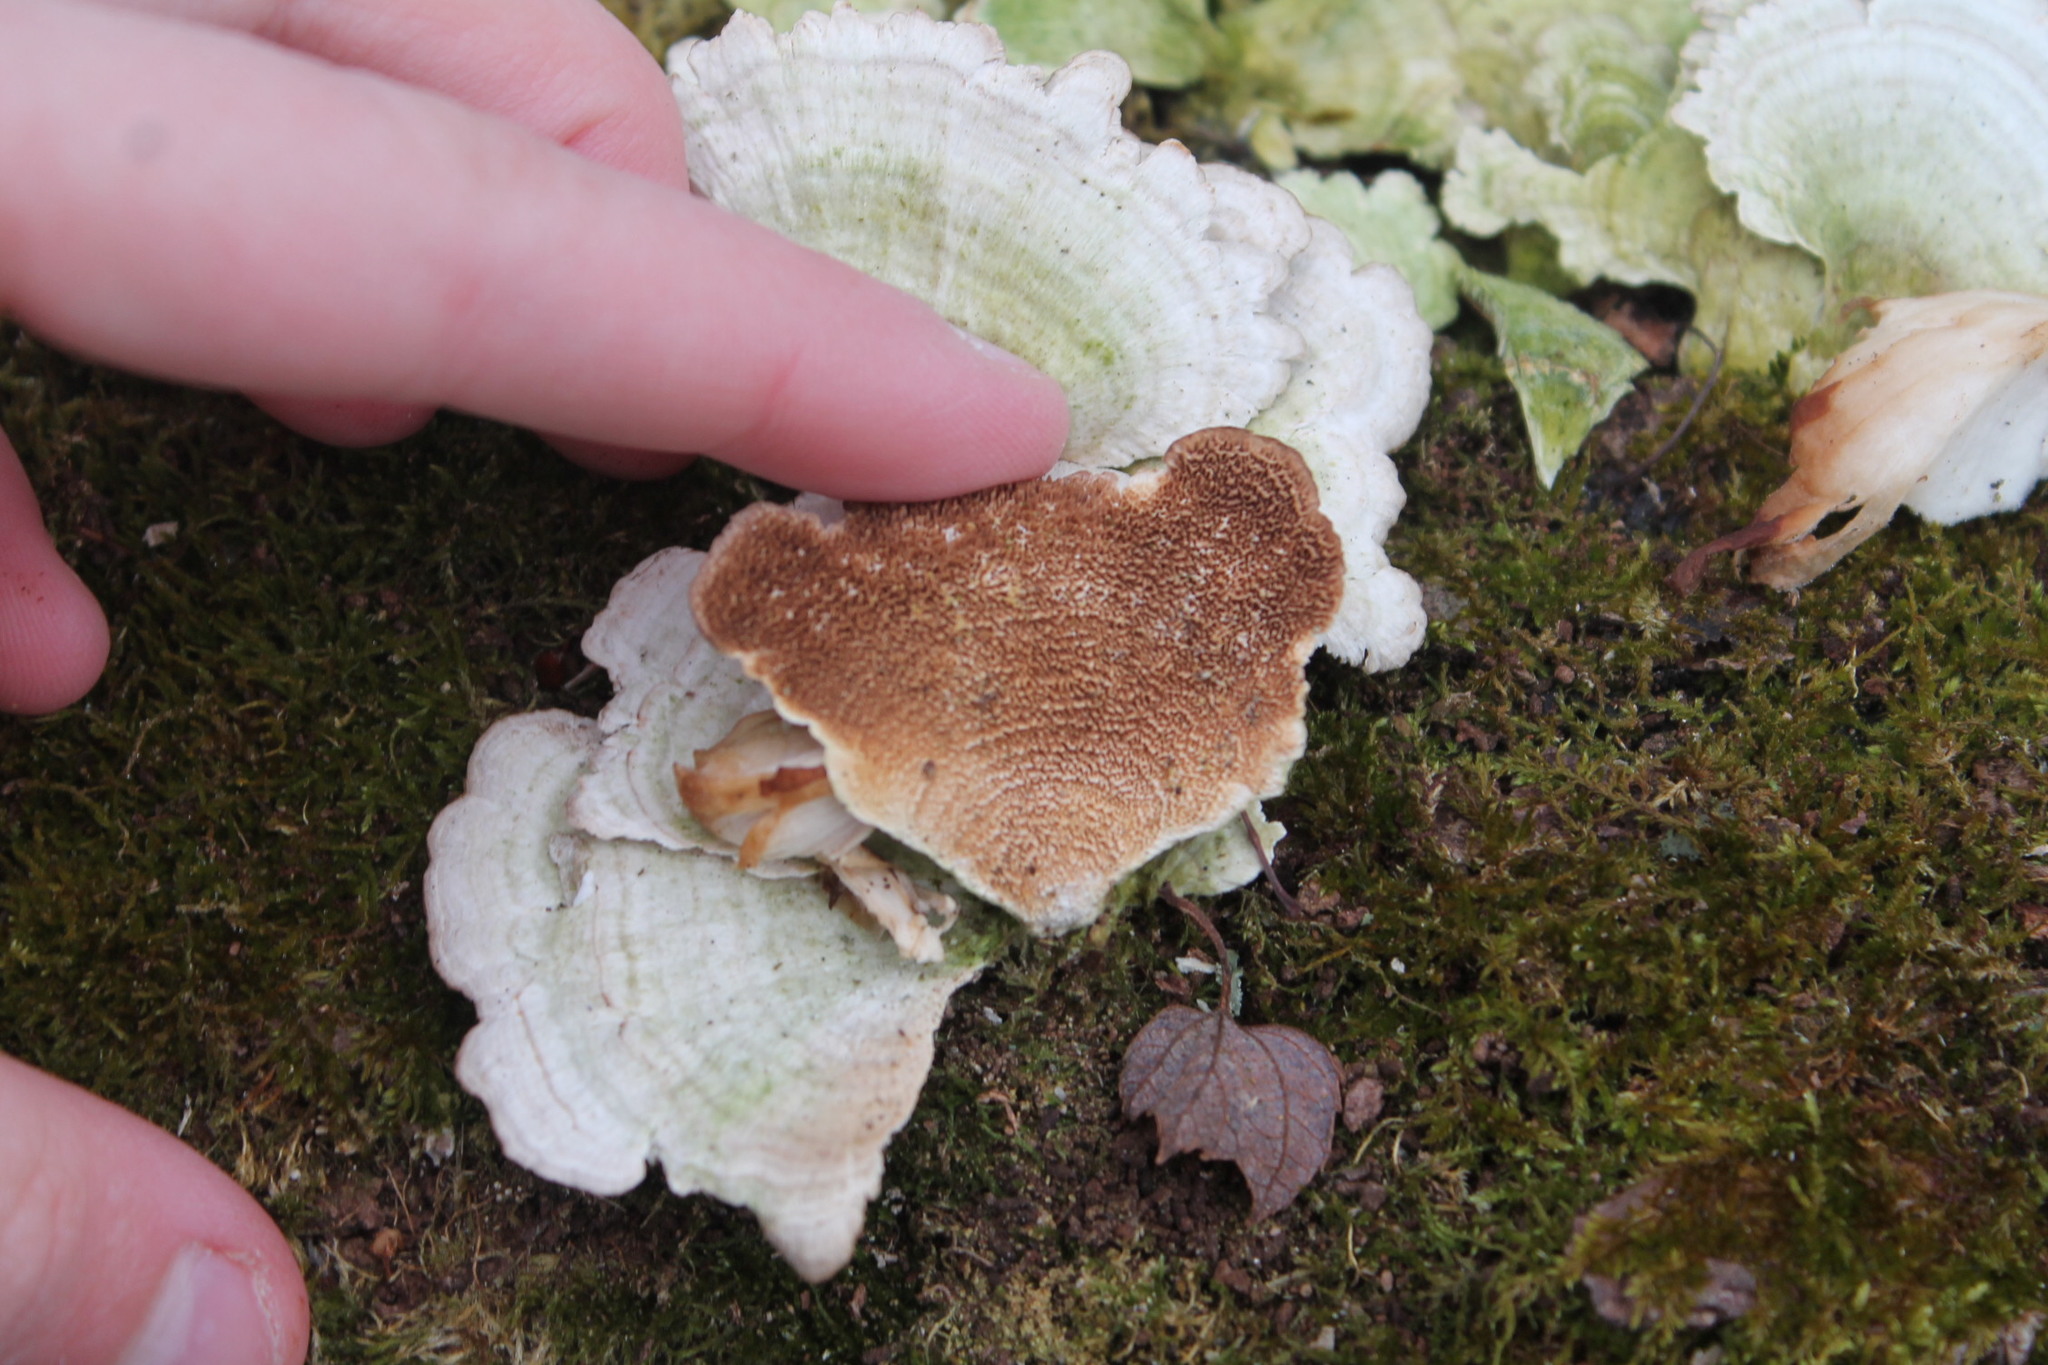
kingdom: Fungi
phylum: Basidiomycota
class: Agaricomycetes
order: Hymenochaetales
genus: Trichaptum
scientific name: Trichaptum biforme
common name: Violet-toothed polypore
